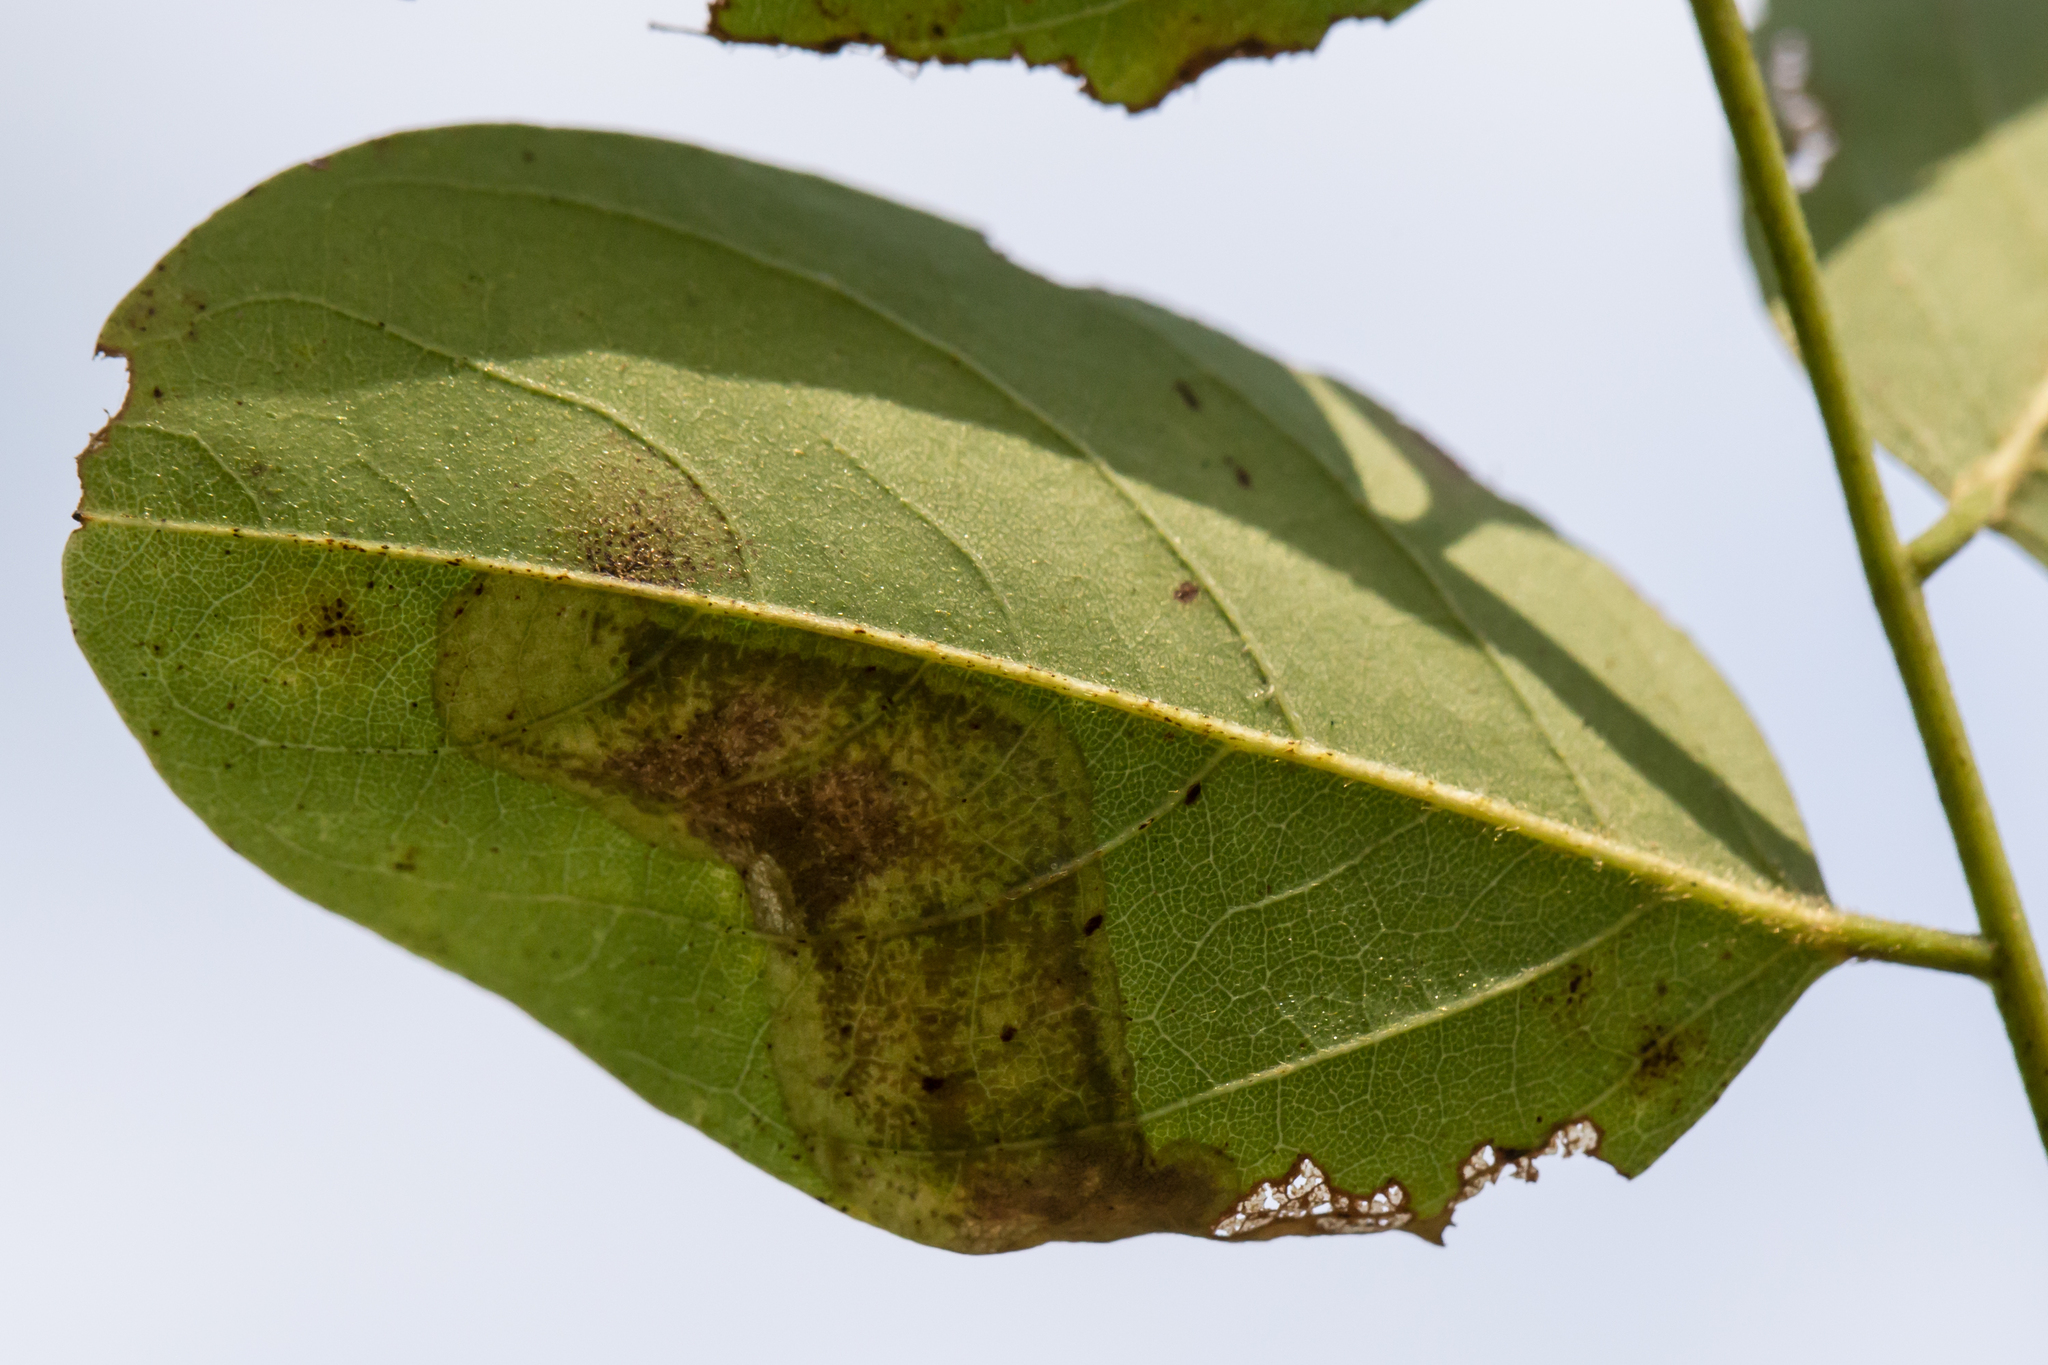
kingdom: Animalia
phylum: Arthropoda
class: Insecta
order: Lepidoptera
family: Gracillariidae
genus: Chrysaster
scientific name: Chrysaster ostensackenella
